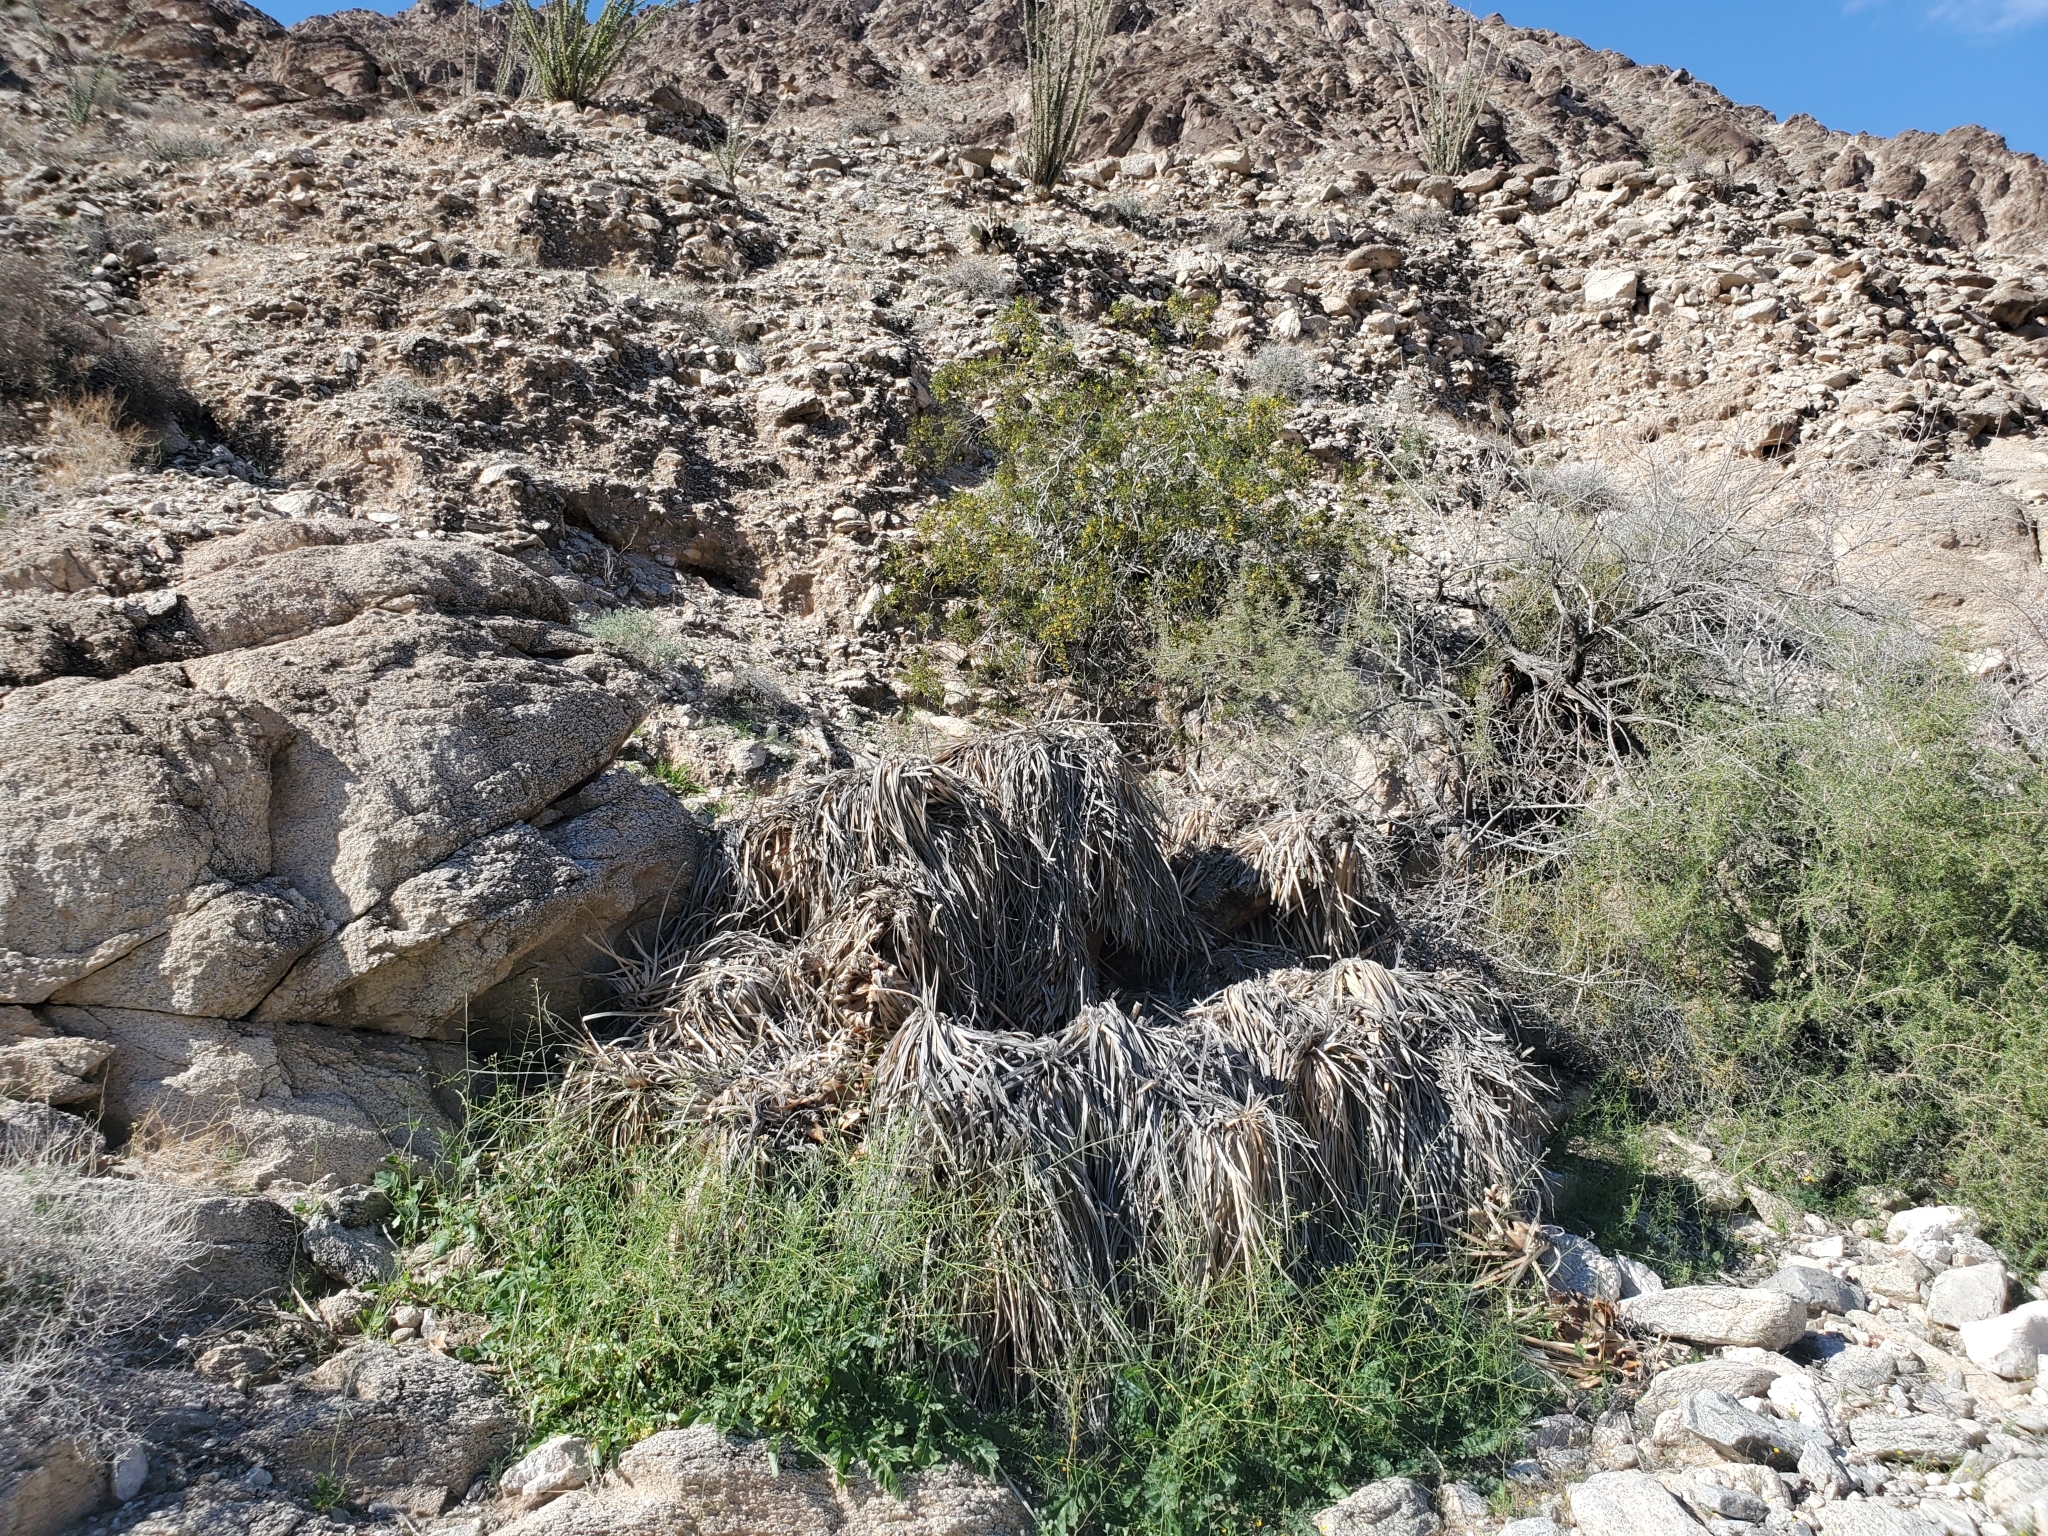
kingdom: Plantae
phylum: Tracheophyta
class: Liliopsida
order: Asparagales
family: Asparagaceae
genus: Nolina
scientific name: Nolina bigelovii
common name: Bigelow bear-grass
